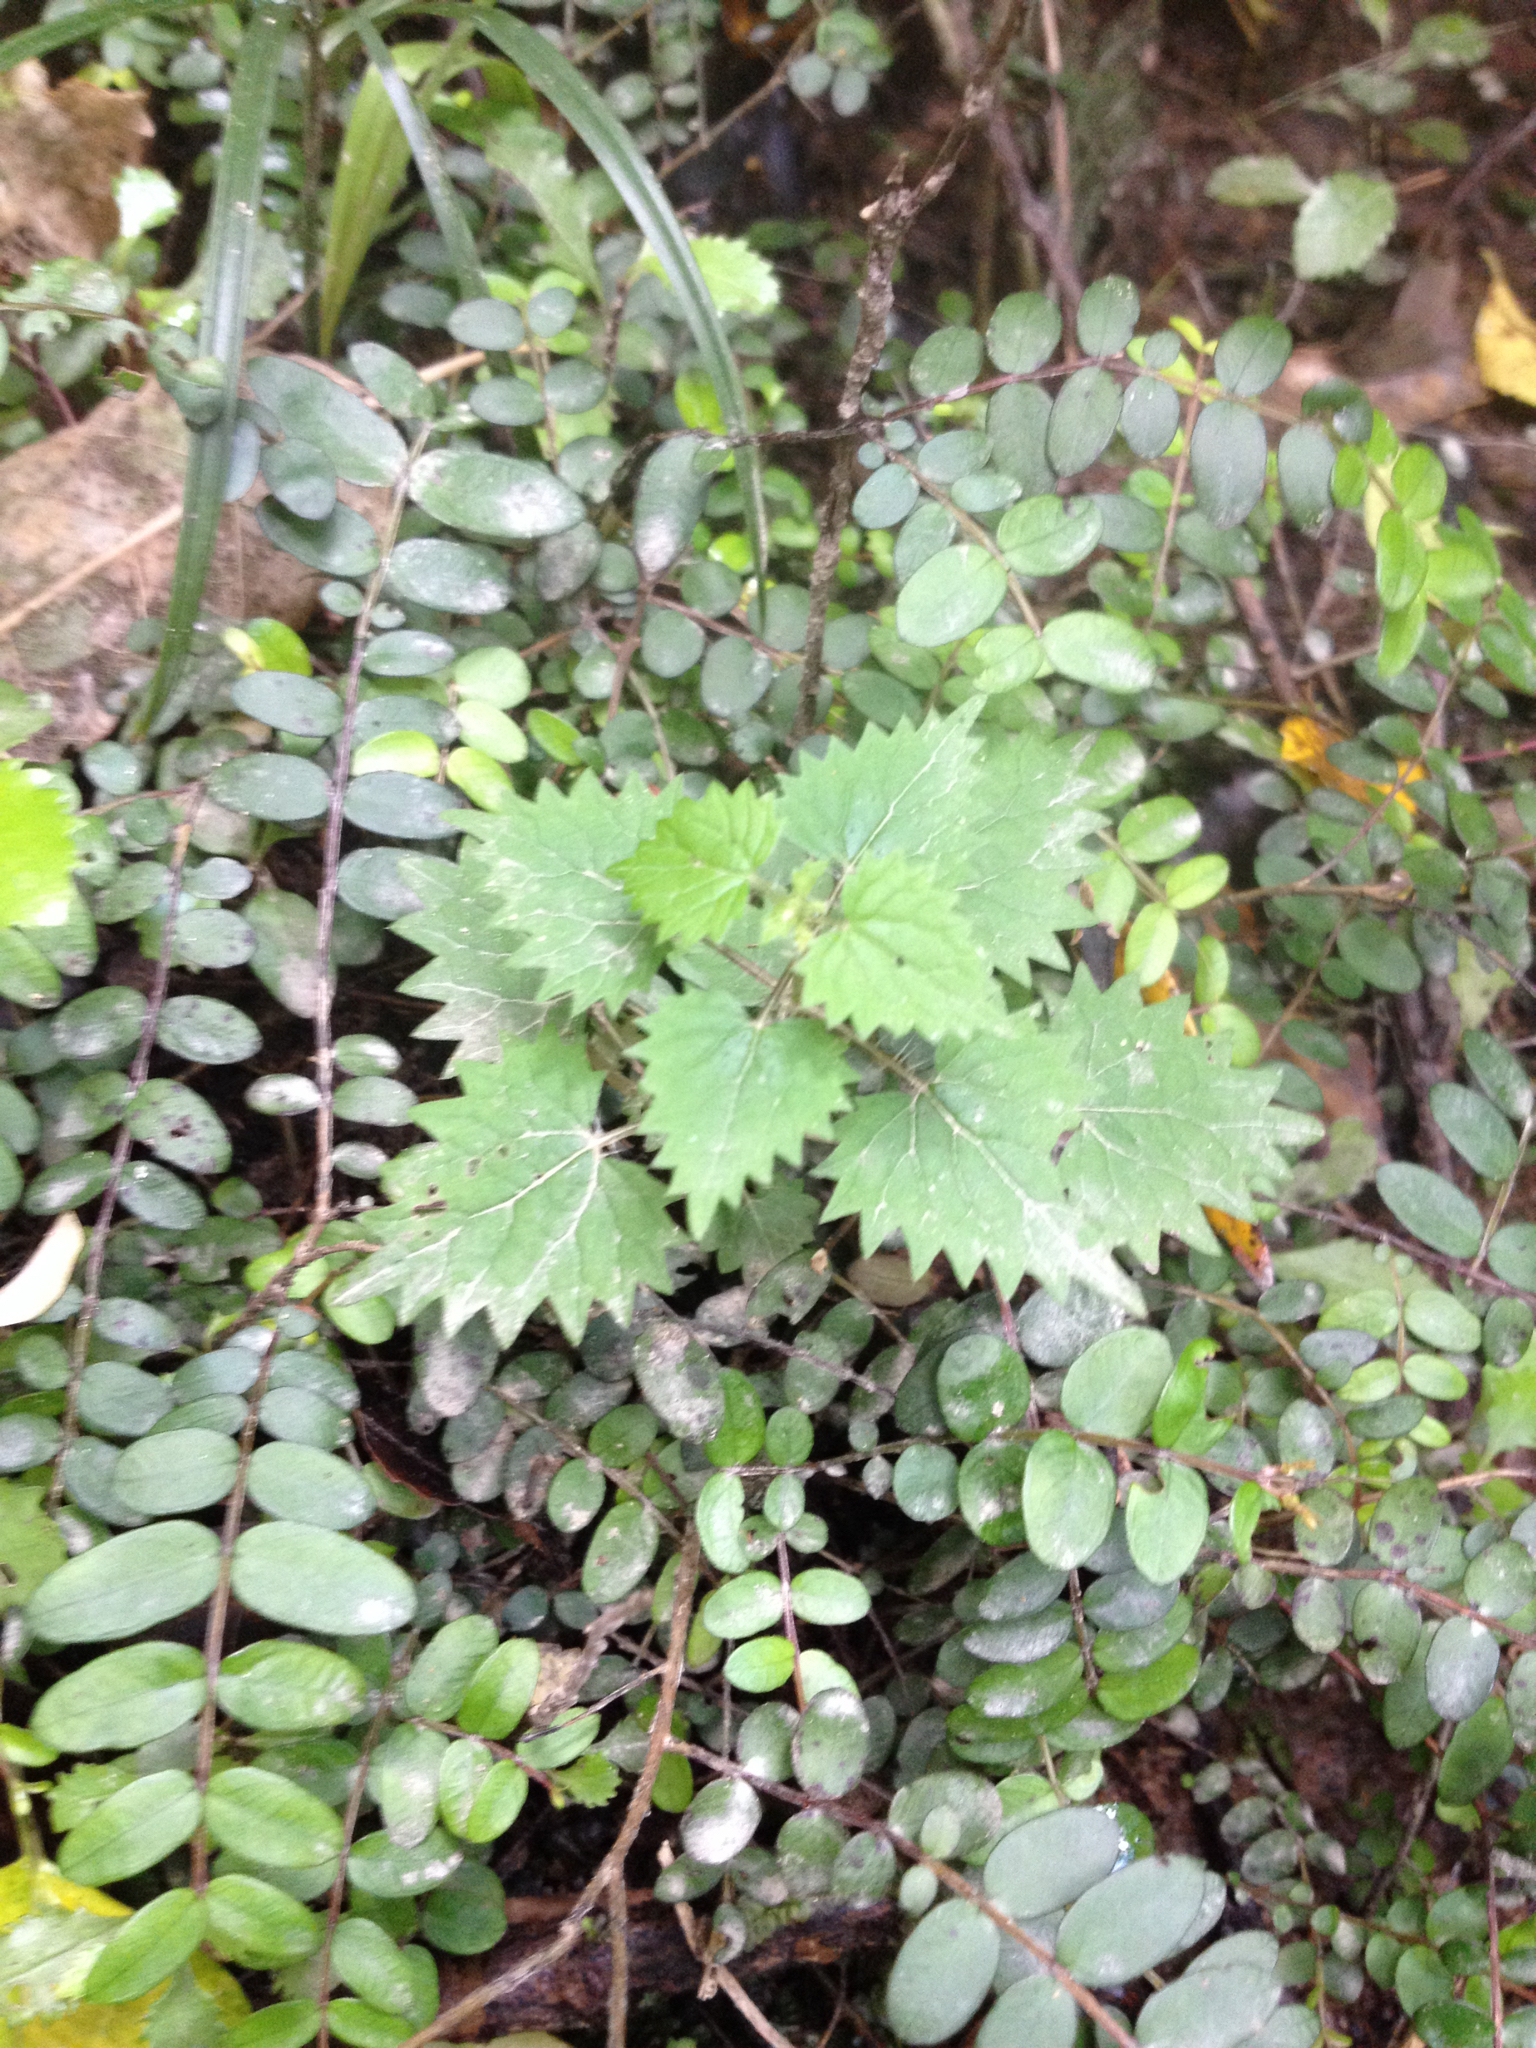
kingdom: Plantae
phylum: Tracheophyta
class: Magnoliopsida
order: Rosales
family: Urticaceae
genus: Urtica
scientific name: Urtica sykesii
